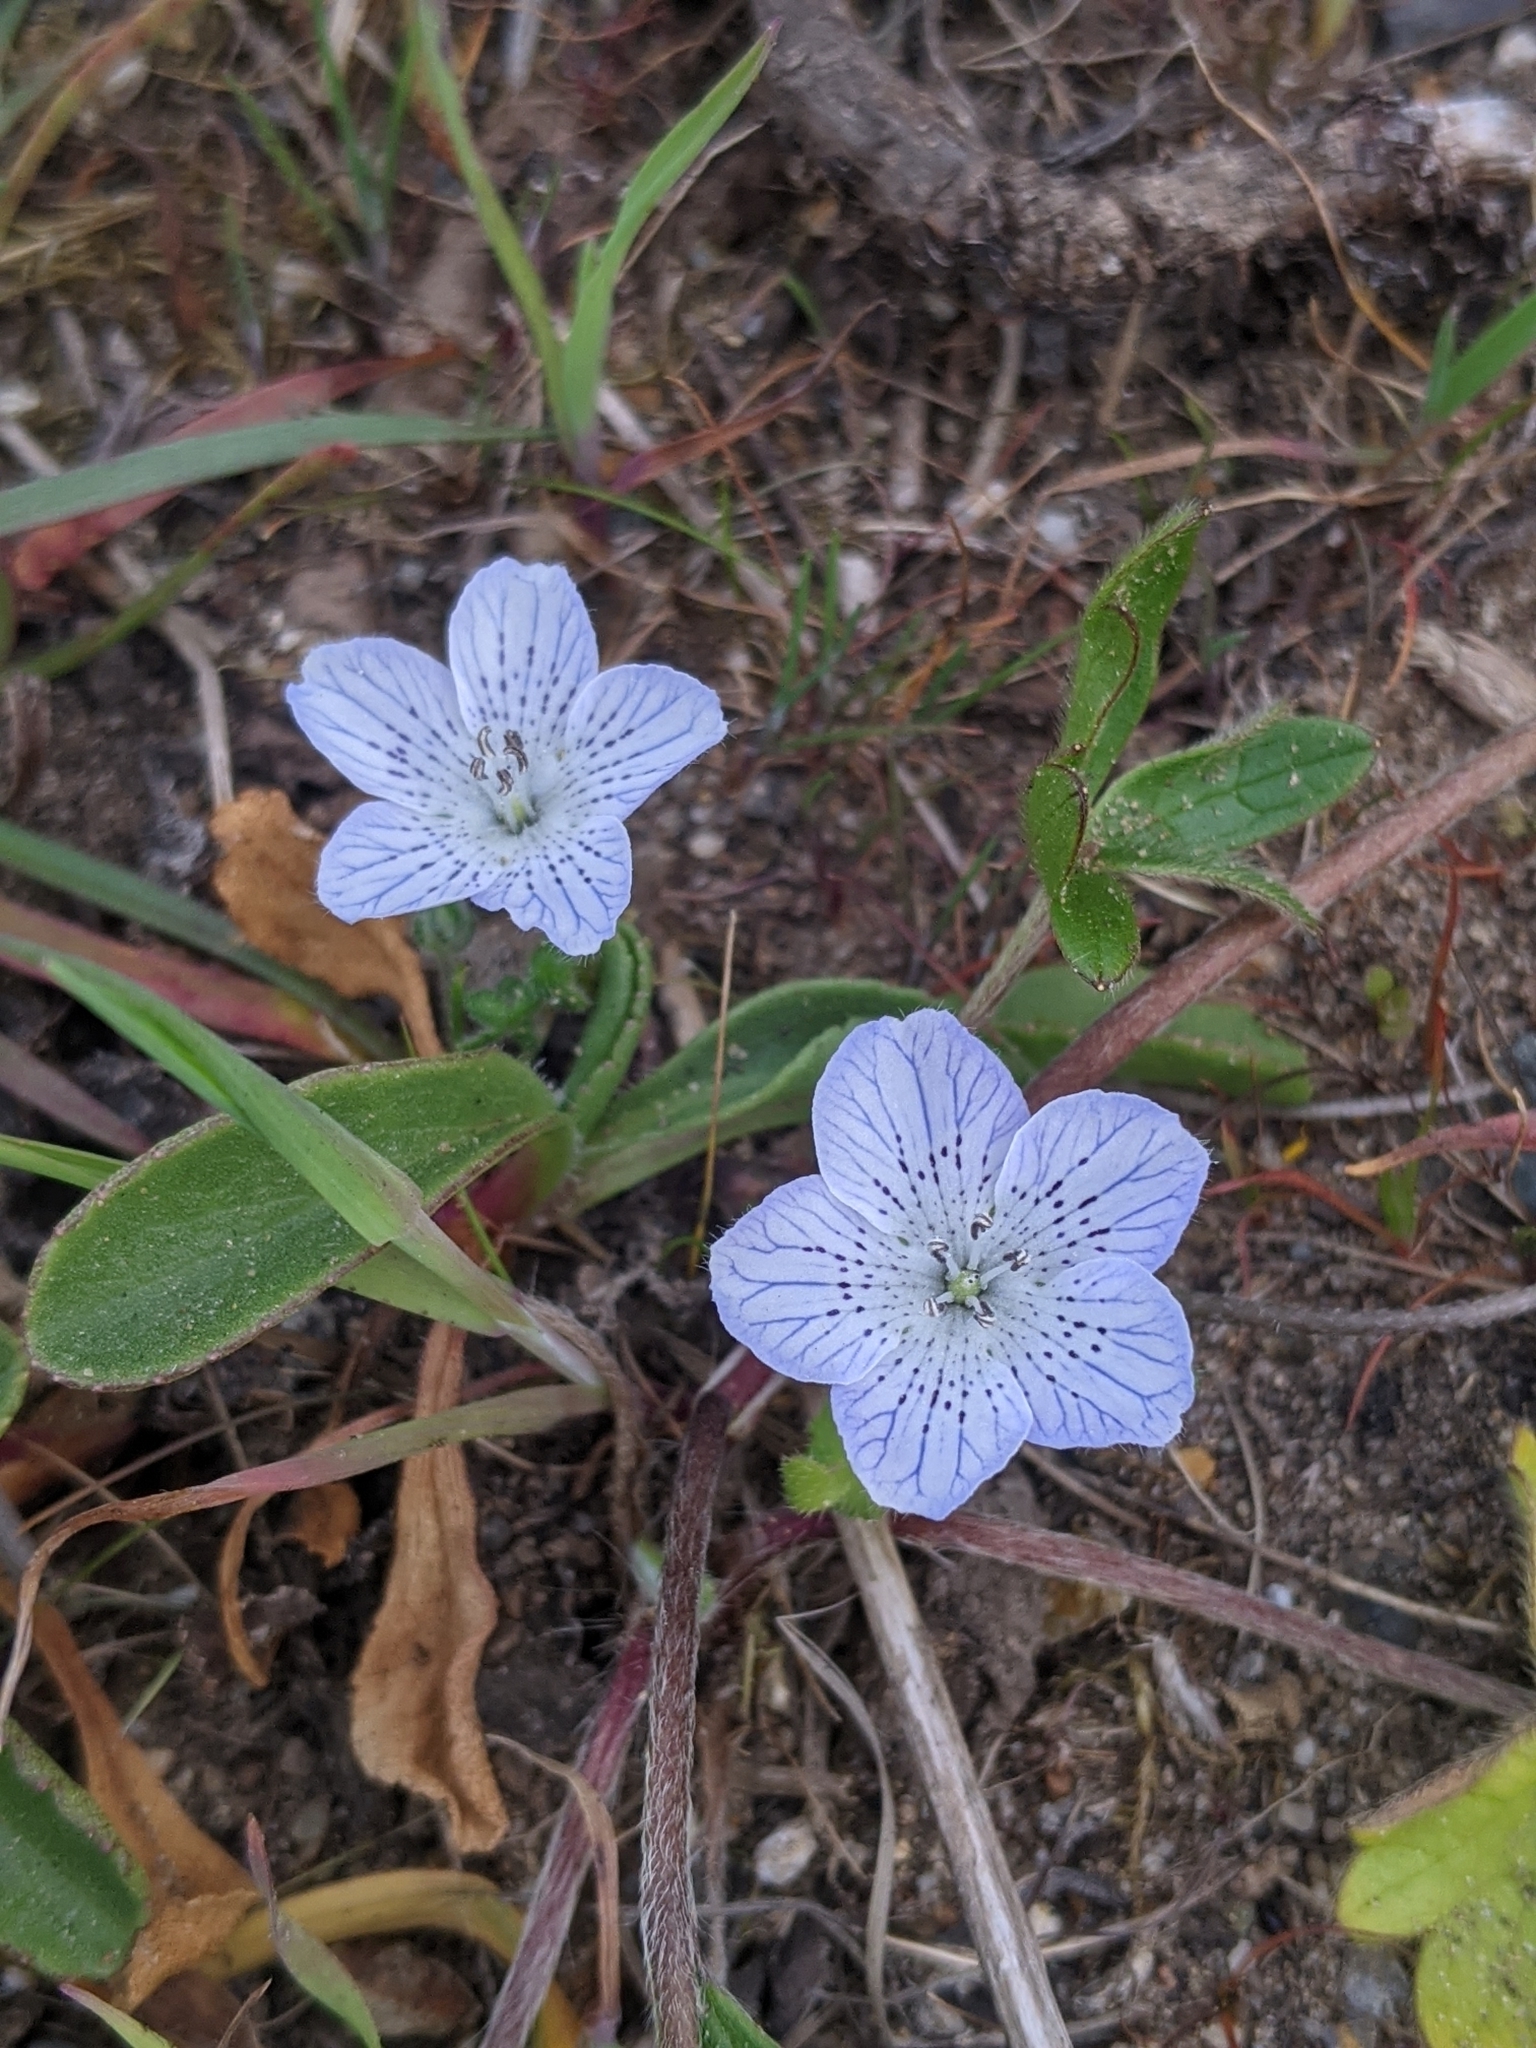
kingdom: Plantae
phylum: Tracheophyta
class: Magnoliopsida
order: Boraginales
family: Hydrophyllaceae
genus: Nemophila
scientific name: Nemophila menziesii
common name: Baby's-blue-eyes
